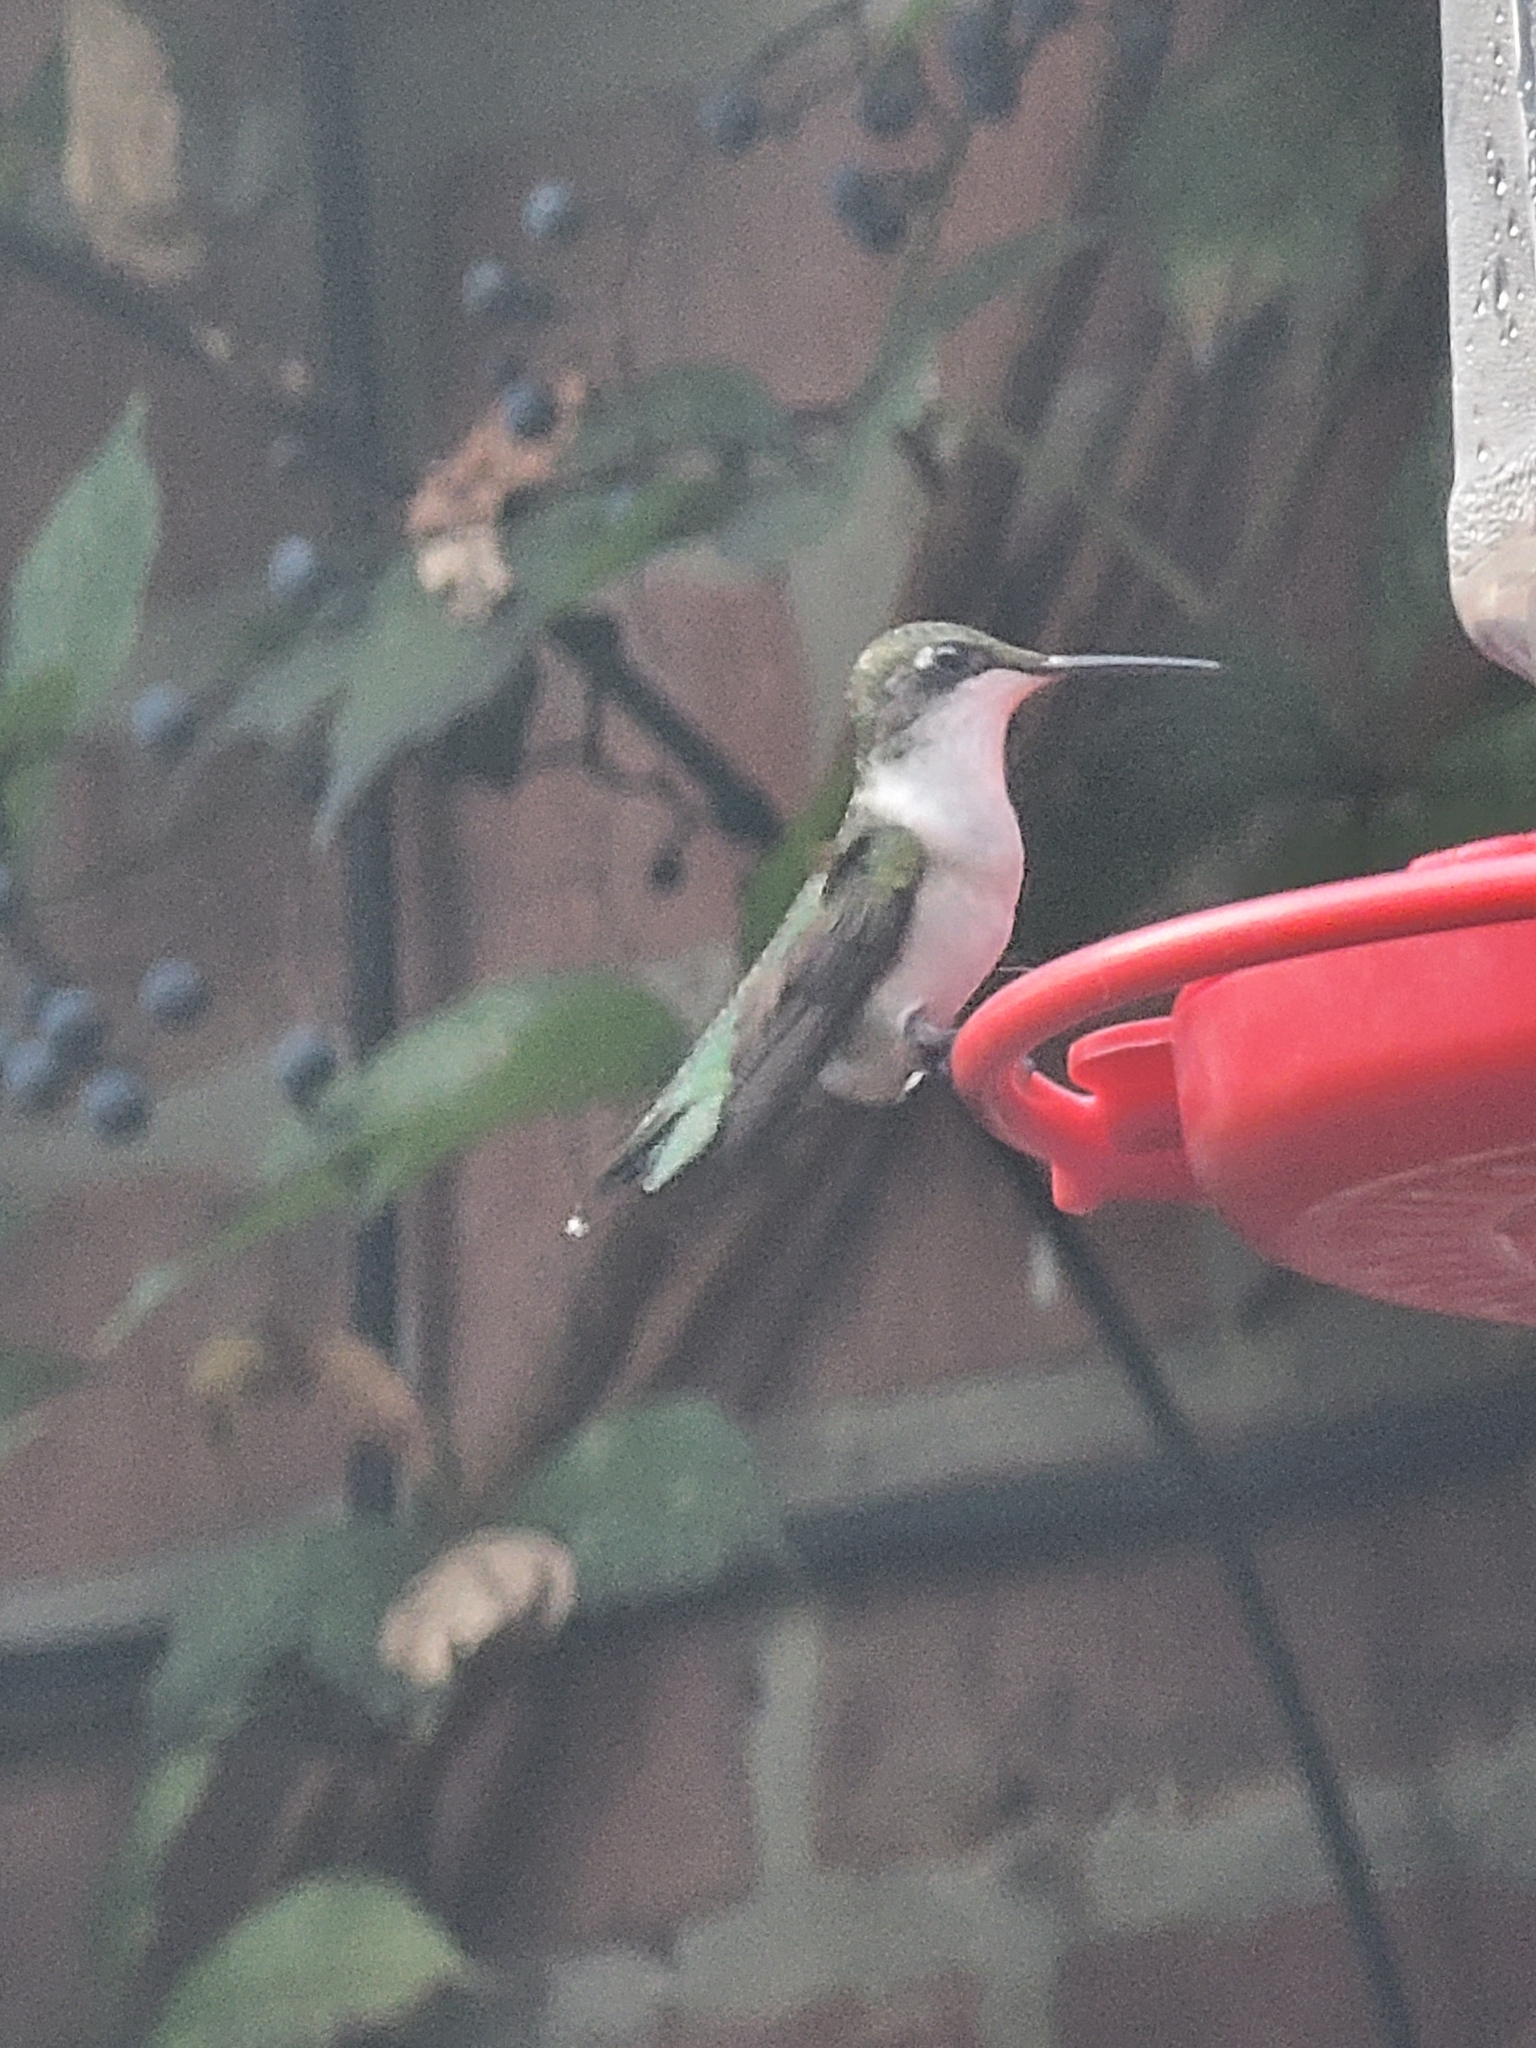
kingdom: Animalia
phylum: Chordata
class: Aves
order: Apodiformes
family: Trochilidae
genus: Archilochus
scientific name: Archilochus colubris
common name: Ruby-throated hummingbird
